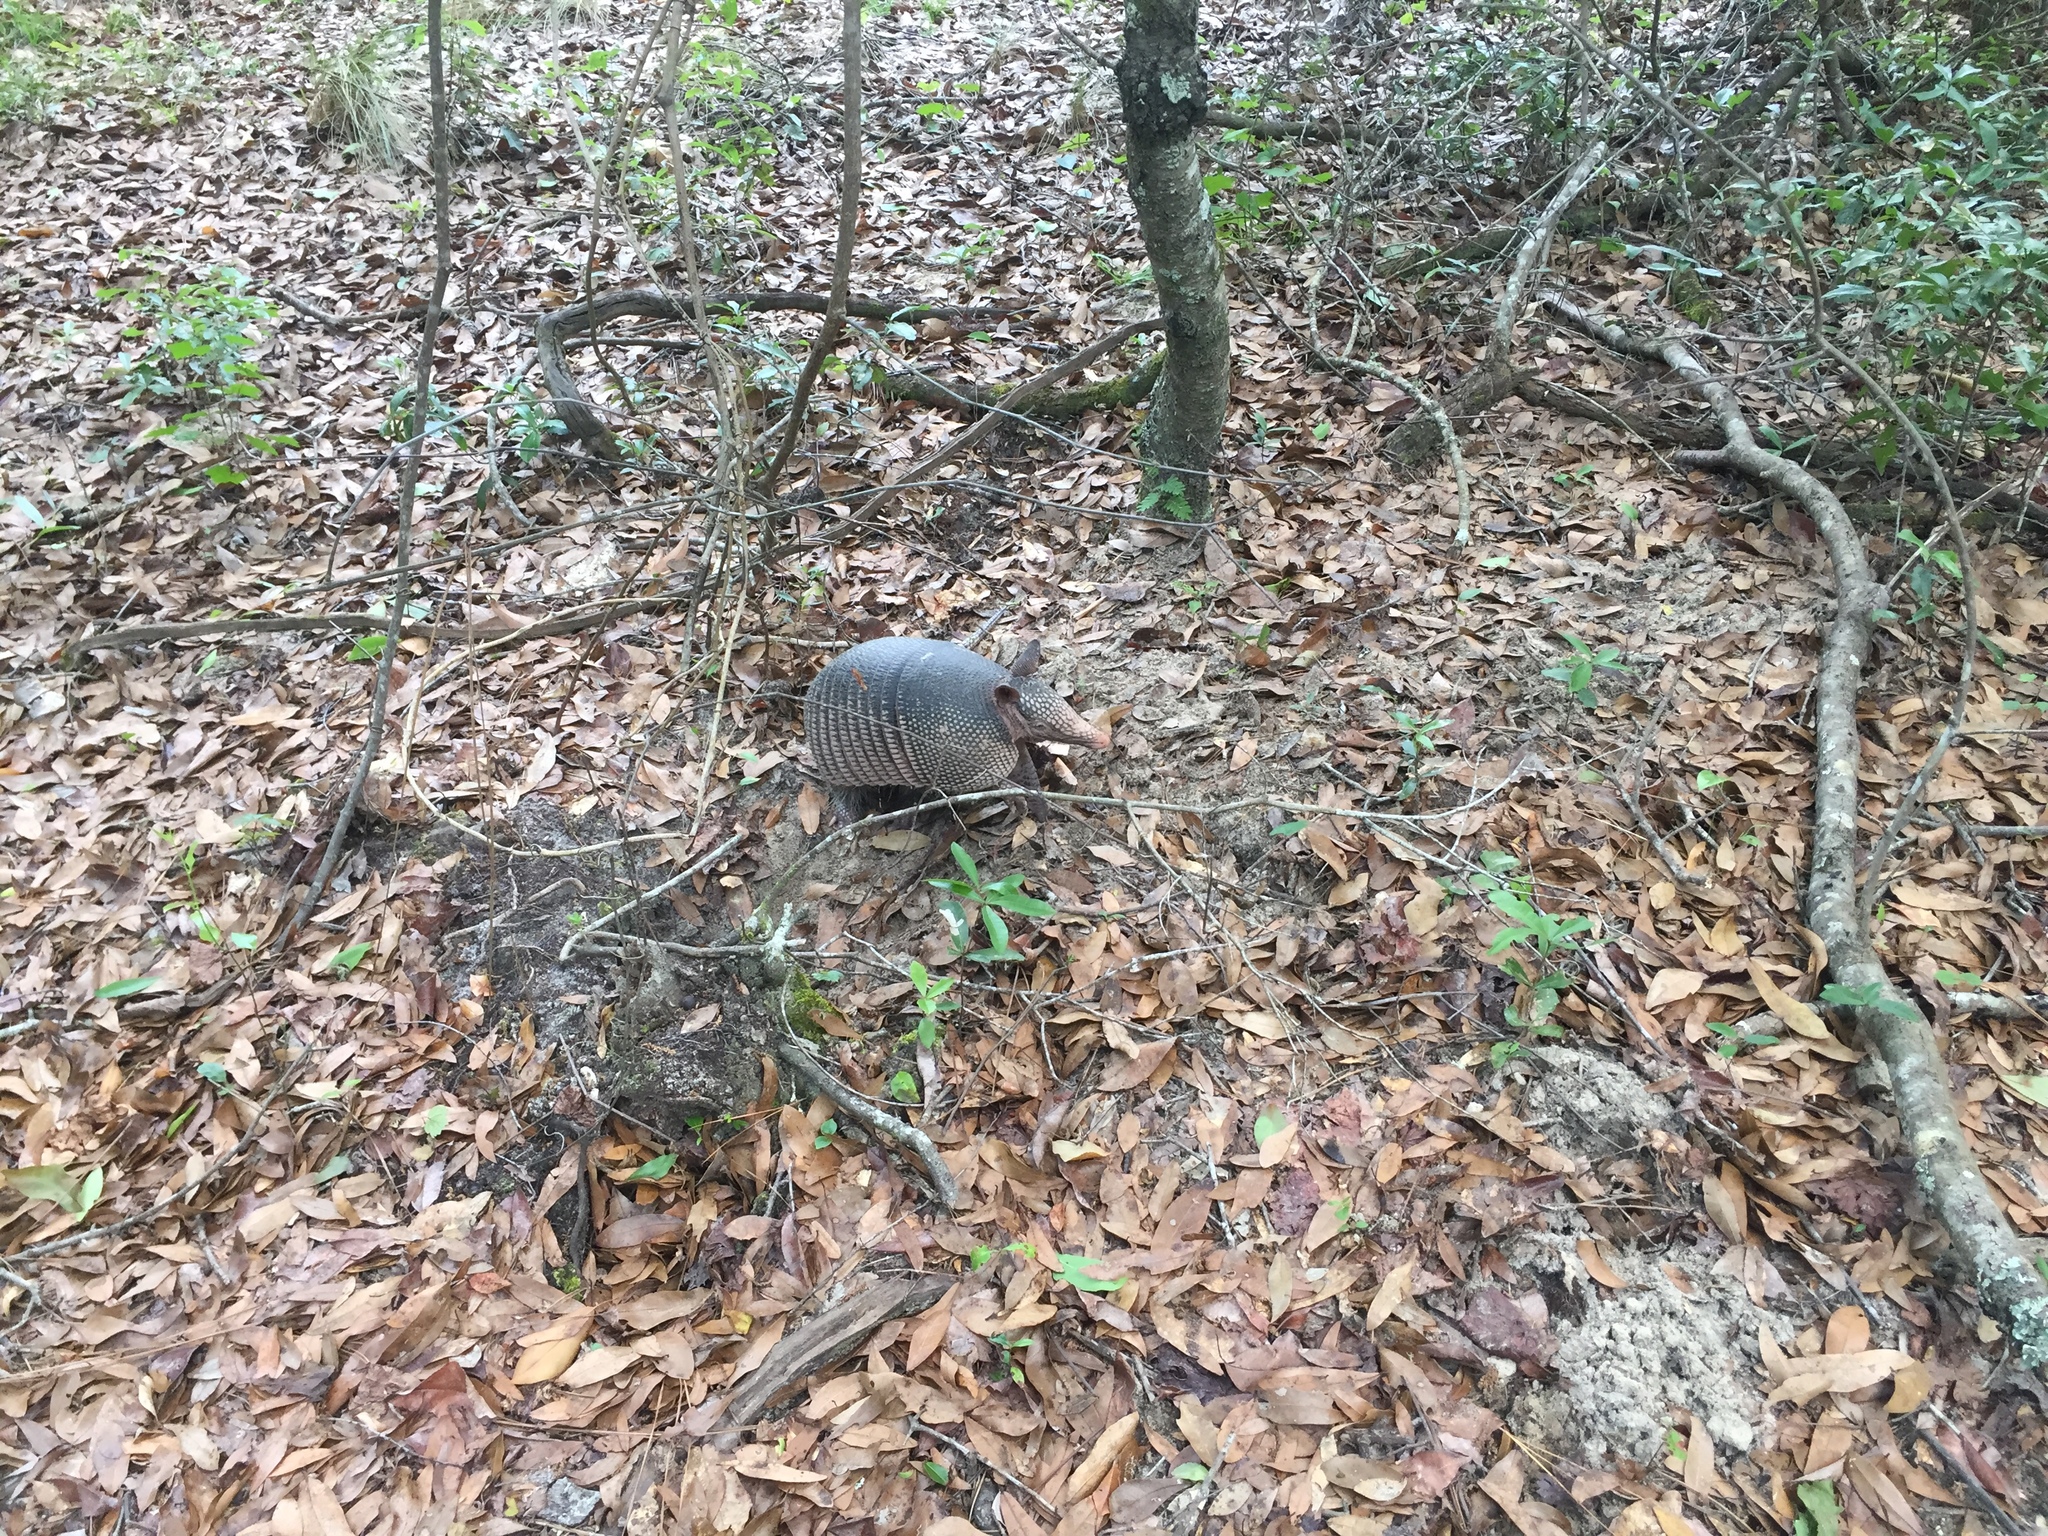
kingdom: Animalia
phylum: Chordata
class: Mammalia
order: Cingulata
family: Dasypodidae
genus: Dasypus
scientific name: Dasypus novemcinctus
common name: Nine-banded armadillo
